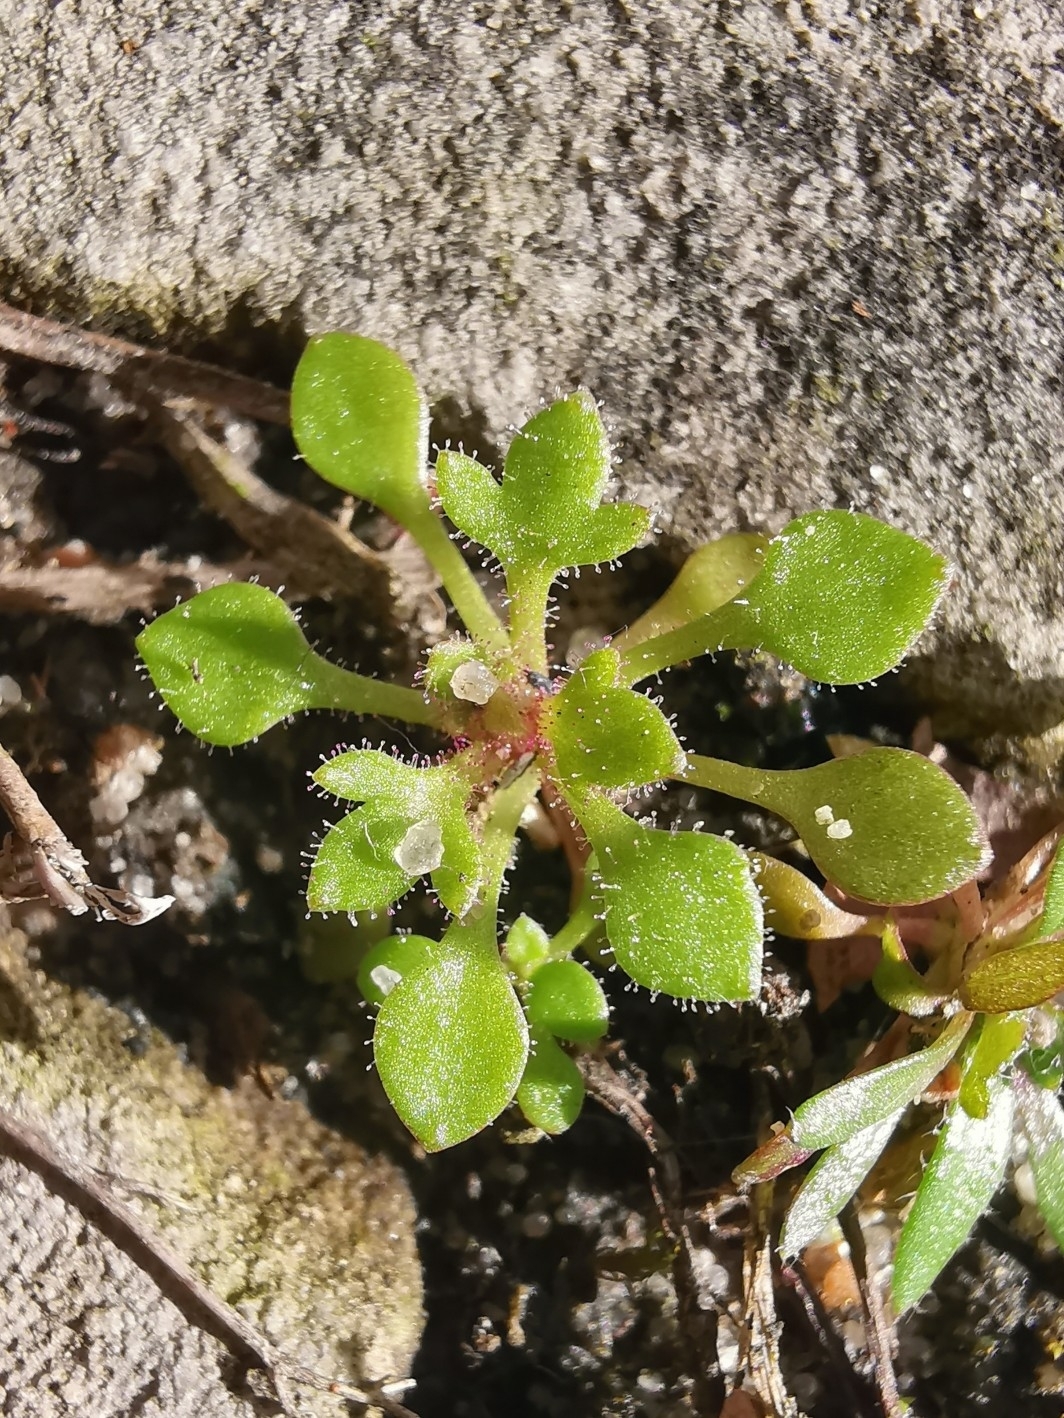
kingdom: Plantae
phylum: Tracheophyta
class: Magnoliopsida
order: Saxifragales
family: Saxifragaceae
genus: Saxifraga
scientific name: Saxifraga tridactylites
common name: Rue-leaved saxifrage
